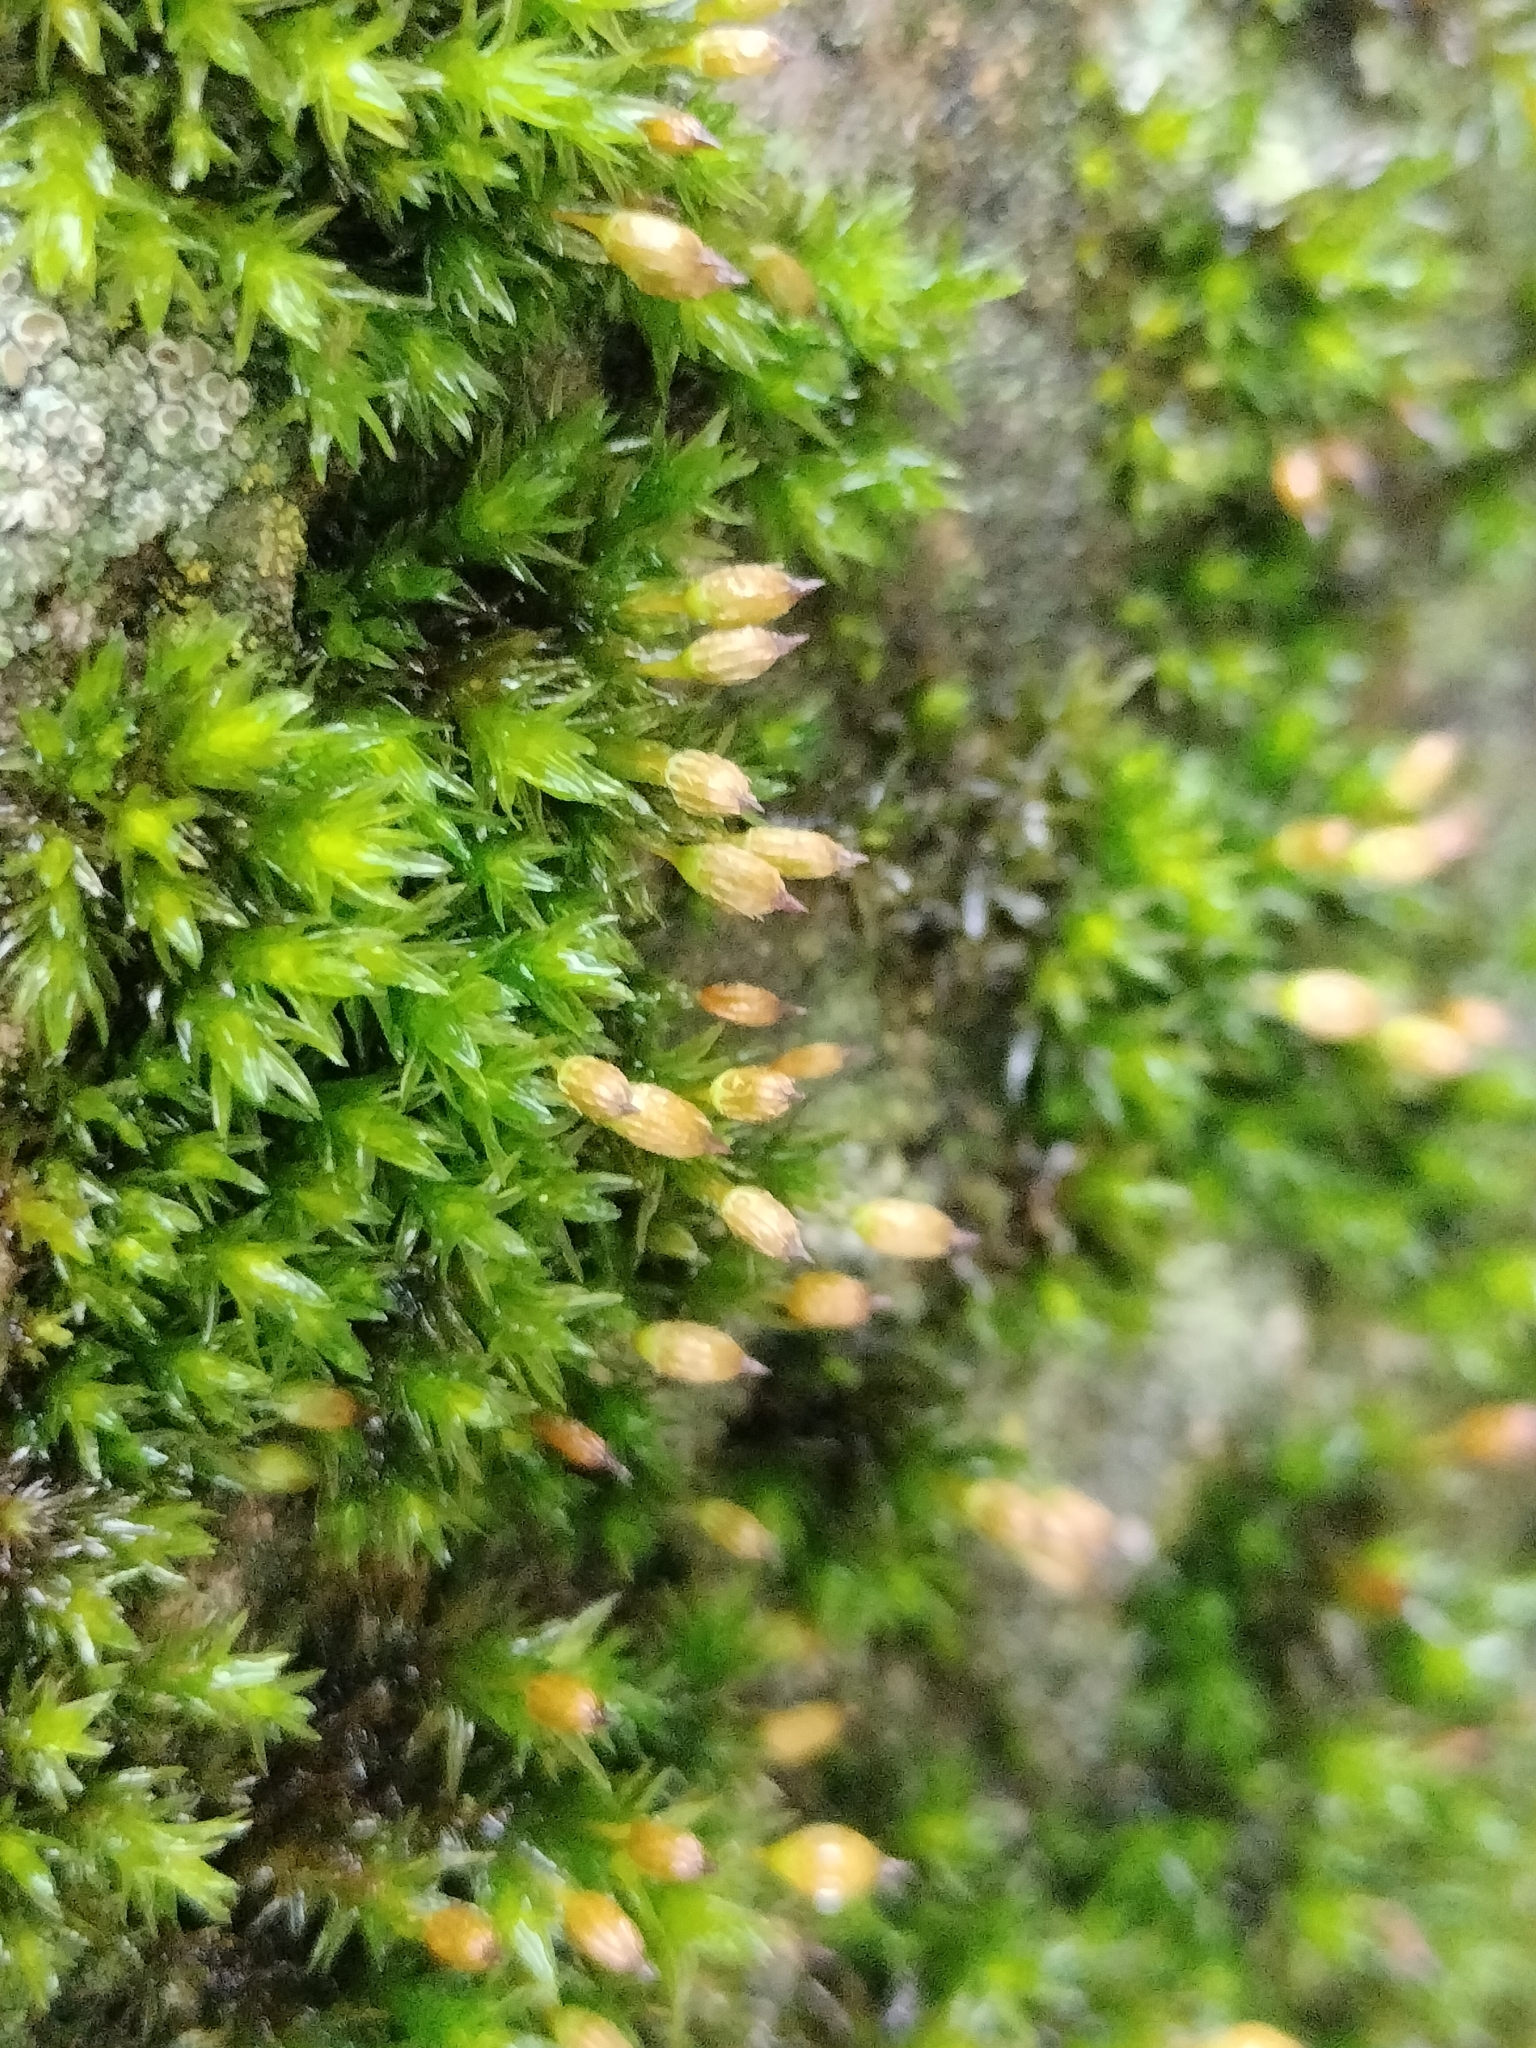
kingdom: Plantae
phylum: Bryophyta
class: Bryopsida
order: Orthotrichales
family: Orthotrichaceae
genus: Orthotrichum
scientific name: Orthotrichum anomalum
